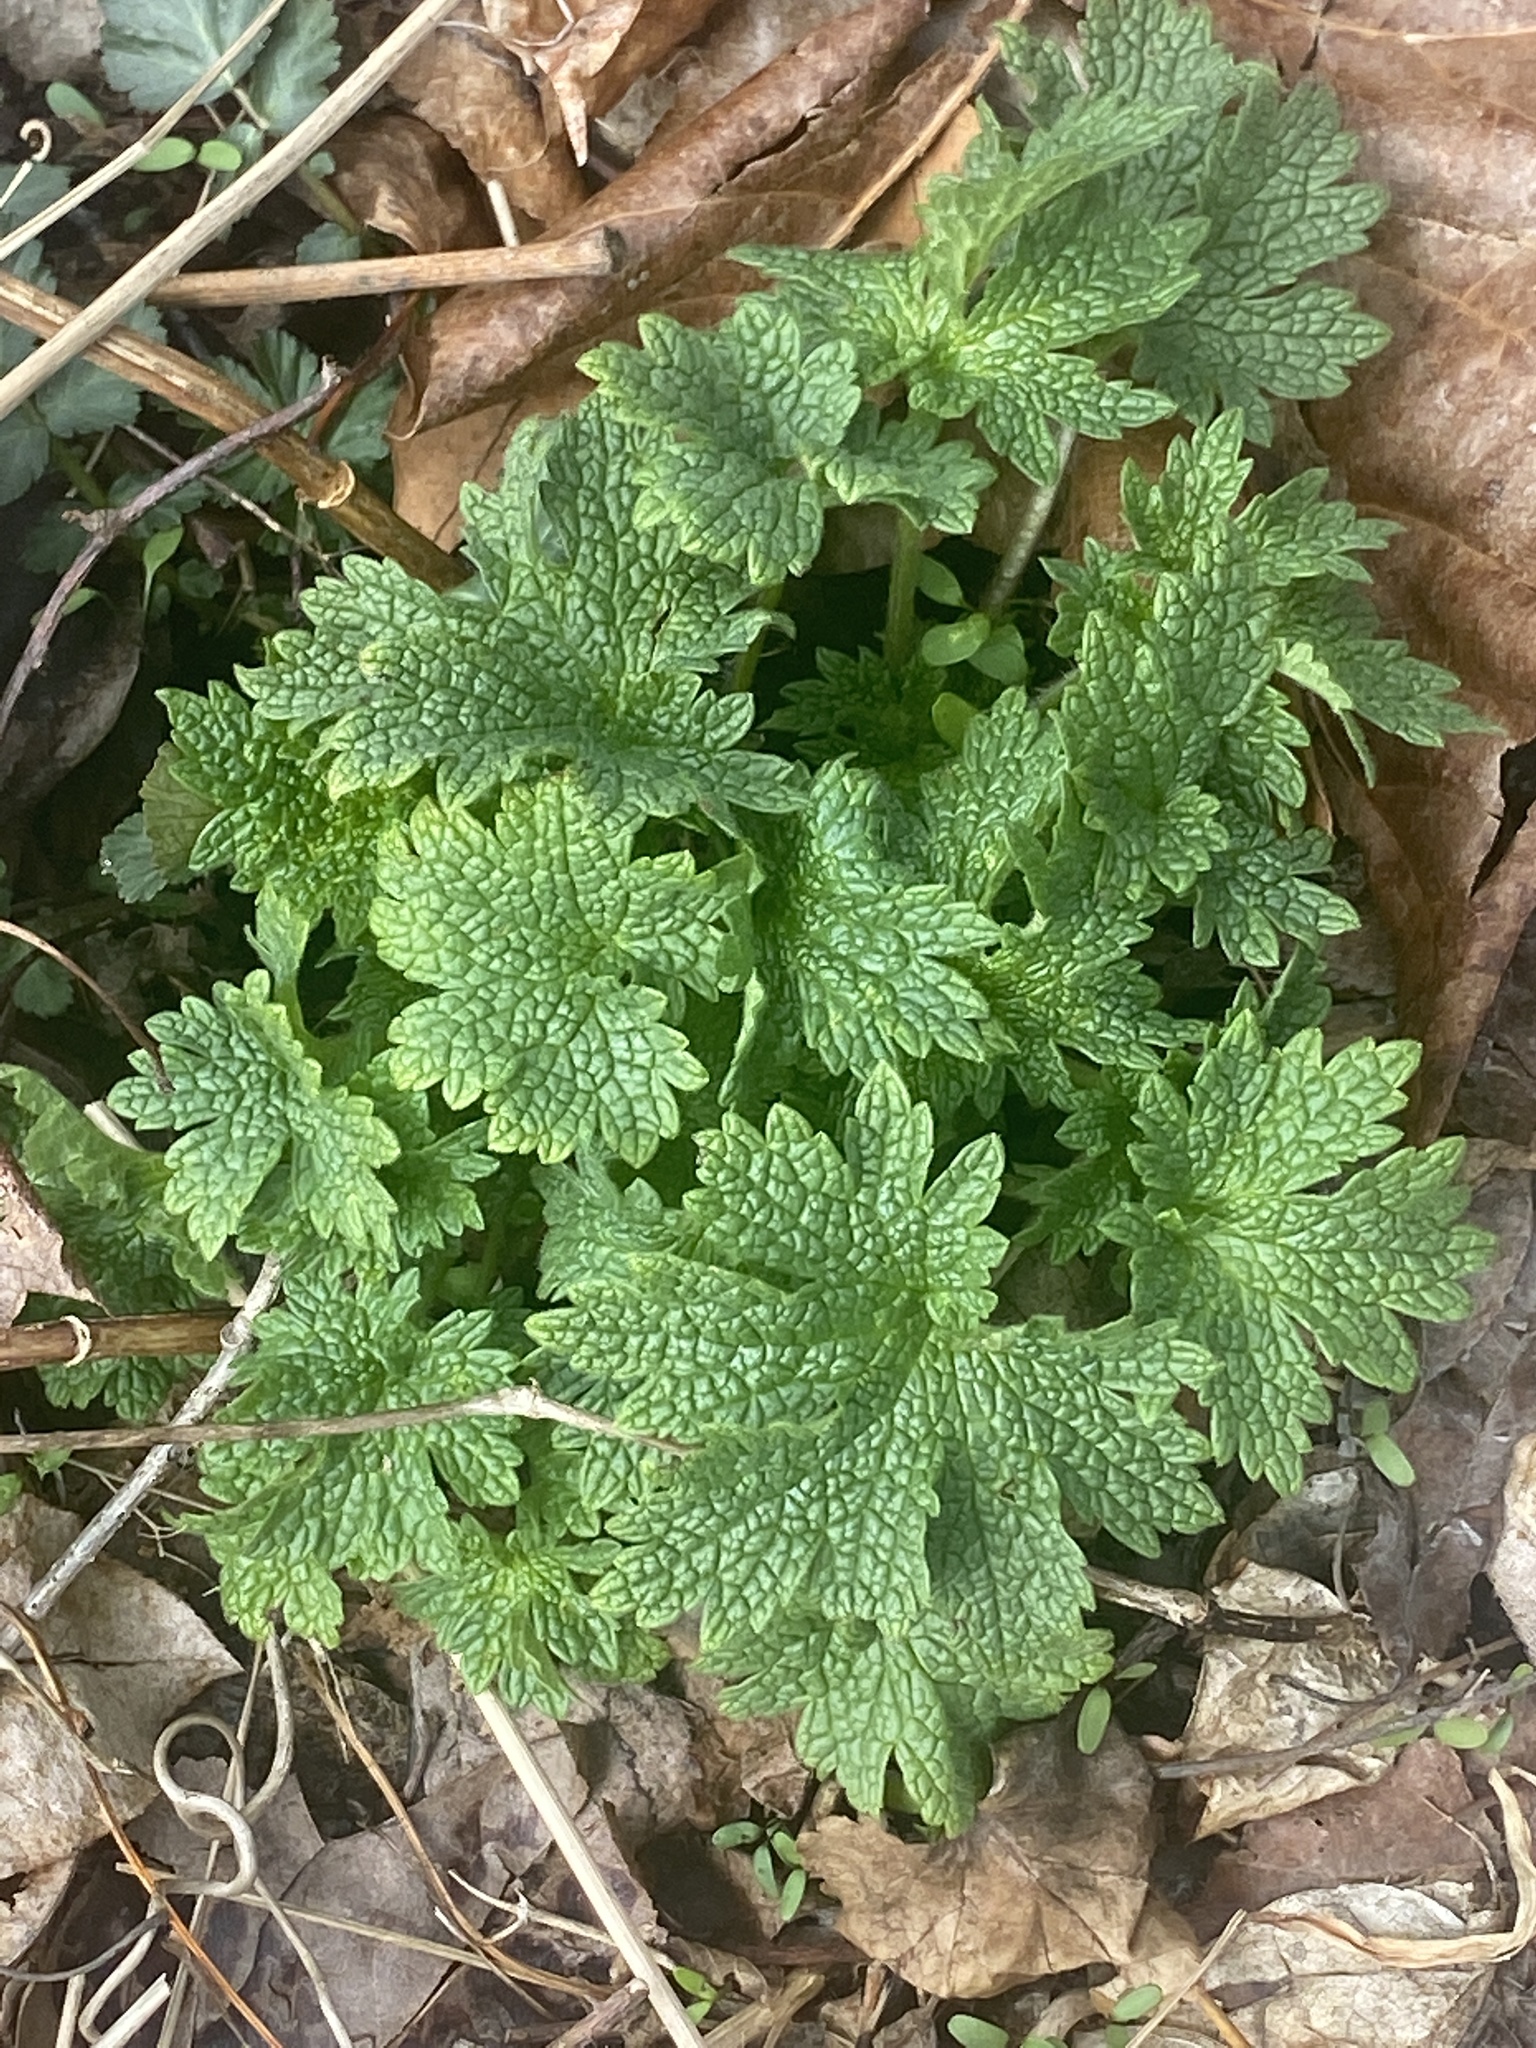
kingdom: Plantae
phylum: Tracheophyta
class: Magnoliopsida
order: Lamiales
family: Lamiaceae
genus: Leonurus
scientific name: Leonurus cardiaca
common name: Motherwort
